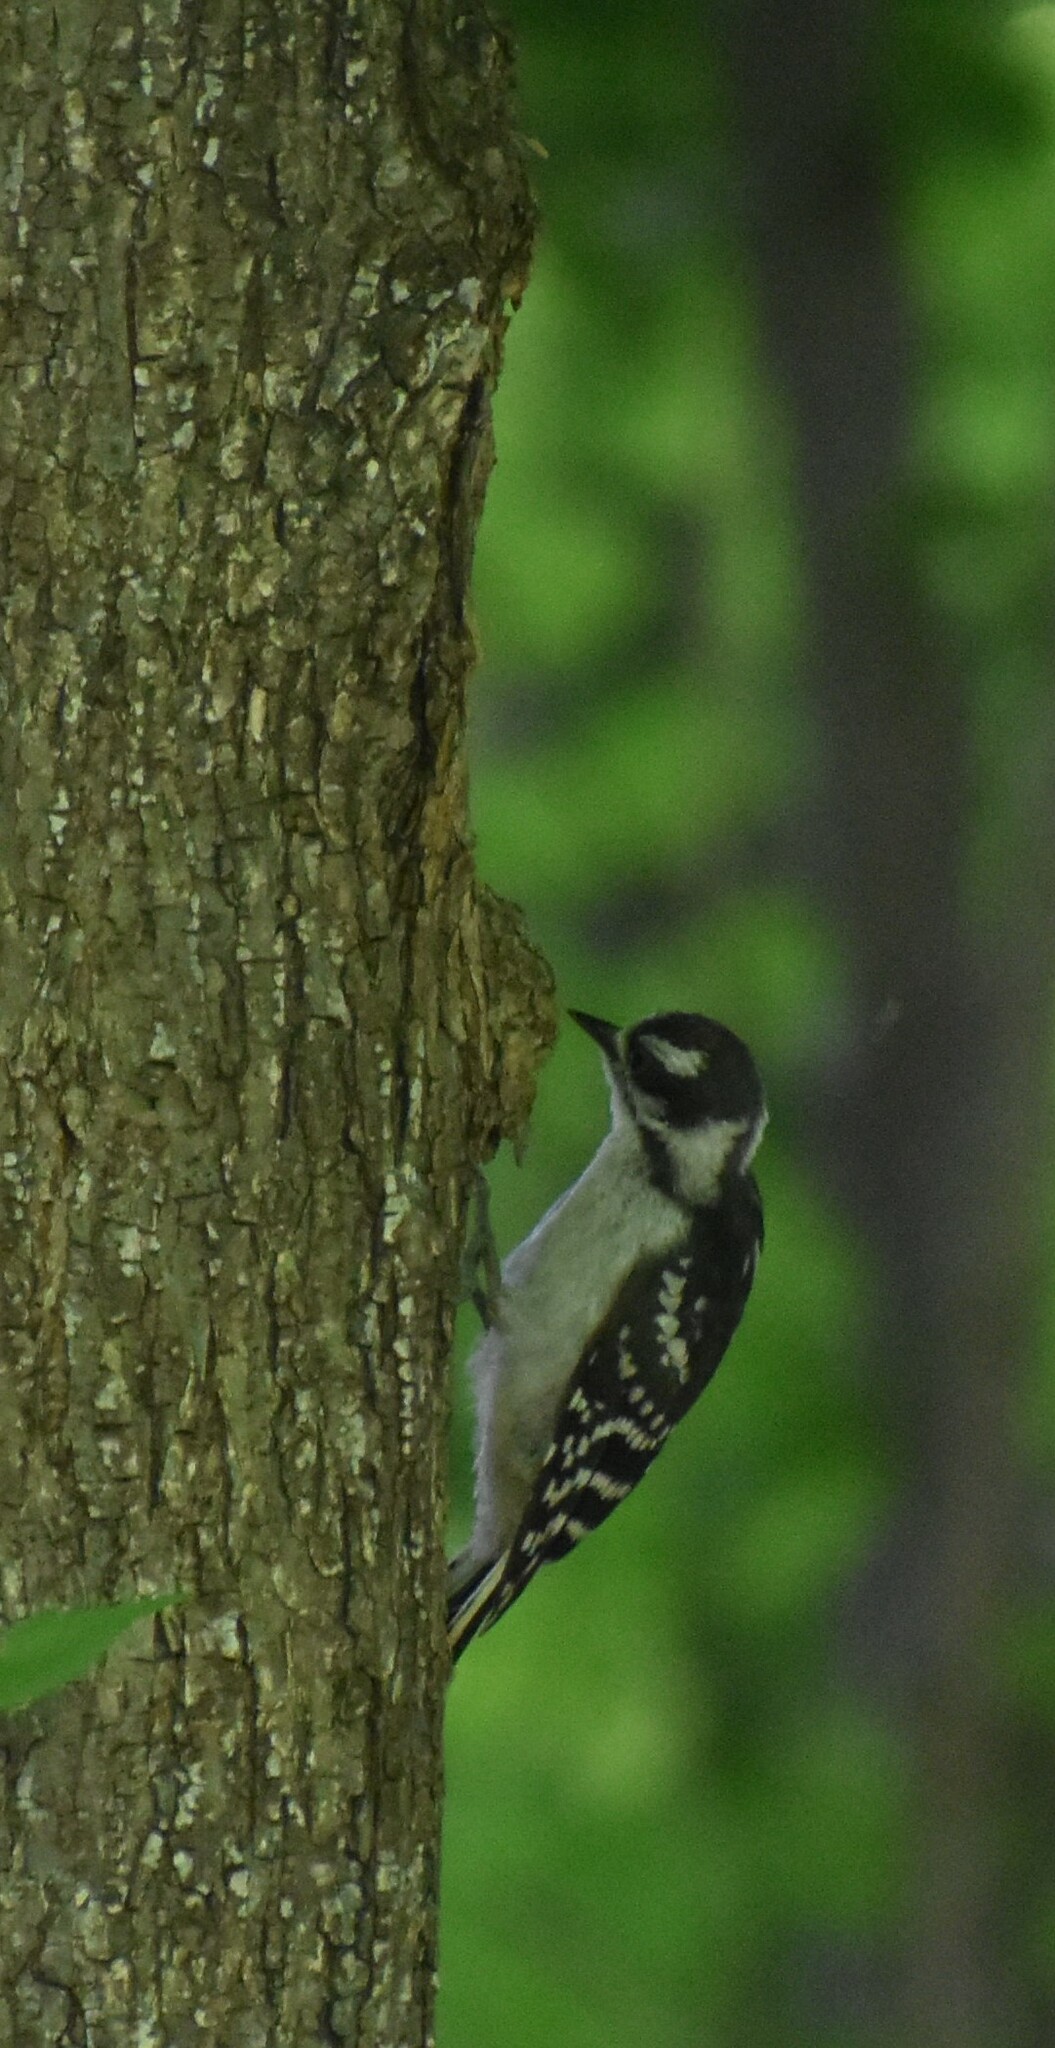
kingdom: Animalia
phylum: Chordata
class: Aves
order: Piciformes
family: Picidae
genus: Leuconotopicus
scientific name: Leuconotopicus villosus
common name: Hairy woodpecker
